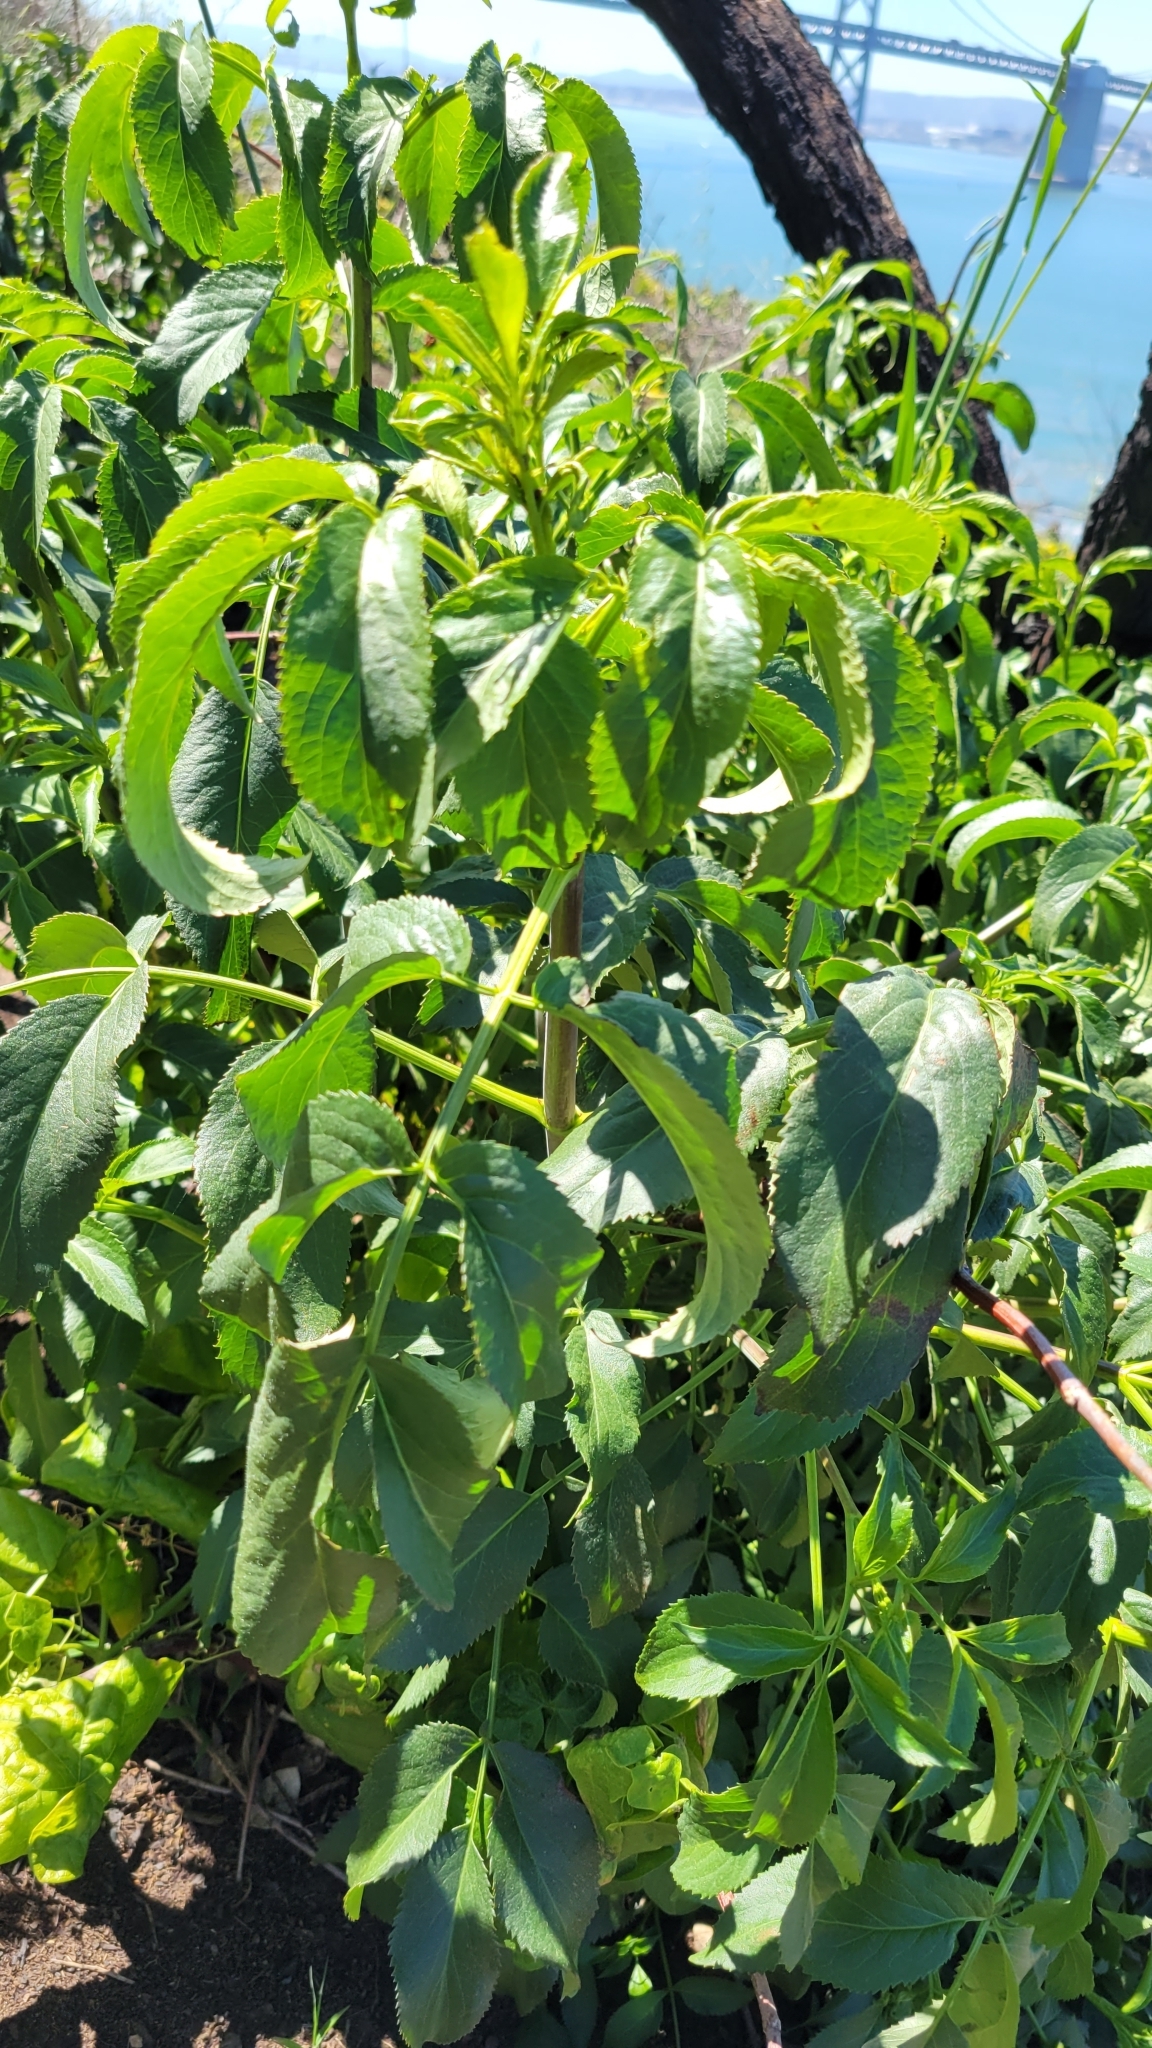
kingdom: Plantae
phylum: Tracheophyta
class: Magnoliopsida
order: Dipsacales
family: Viburnaceae
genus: Sambucus
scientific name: Sambucus cerulea
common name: Blue elder
